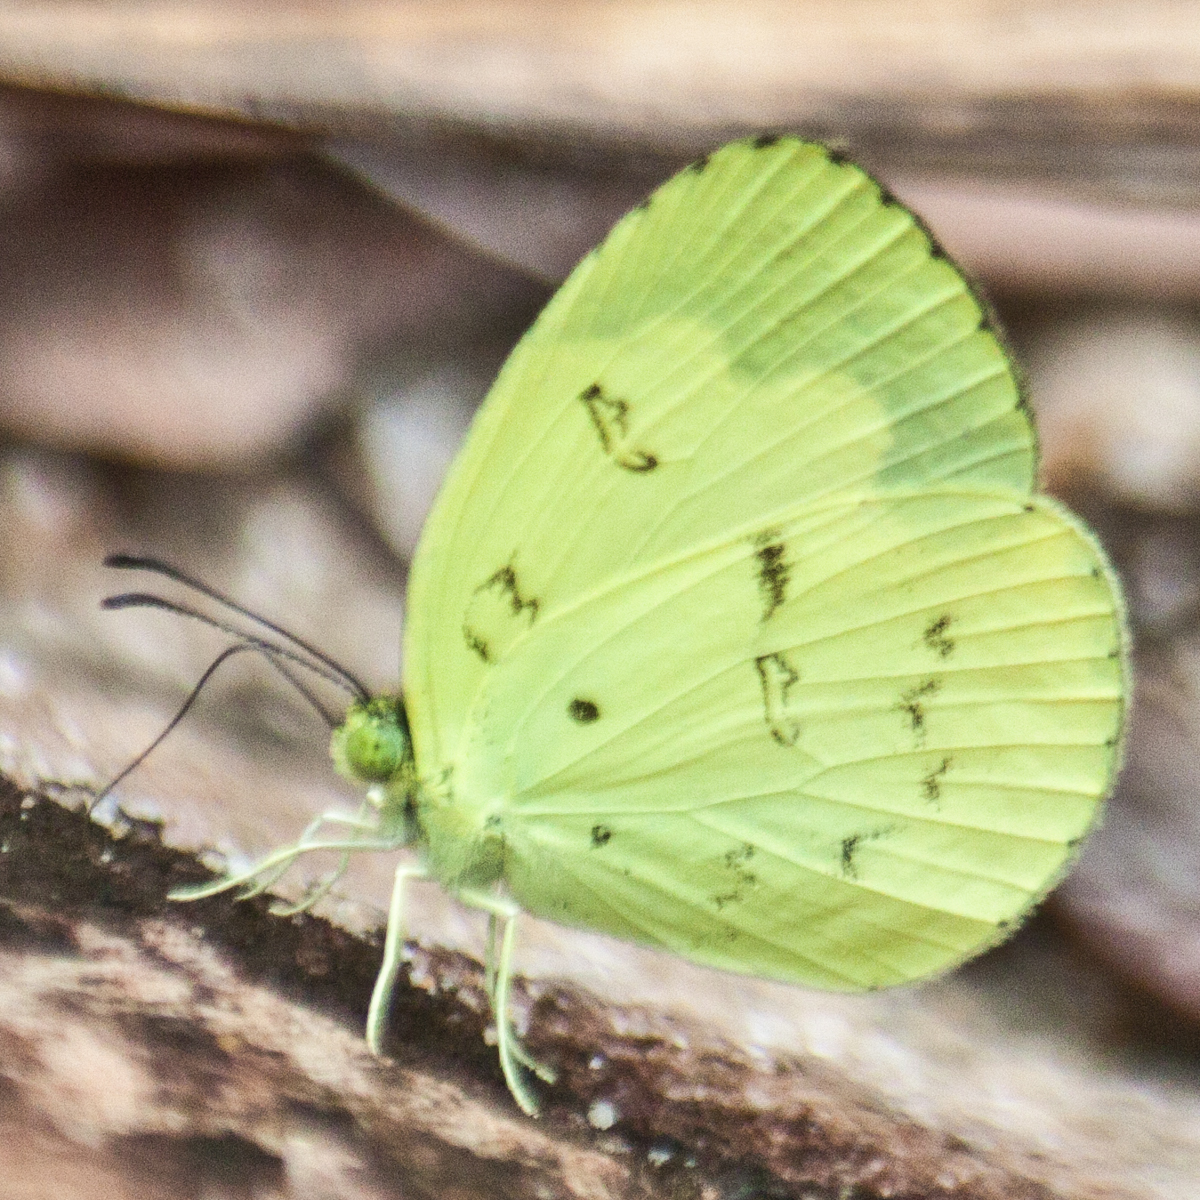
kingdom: Animalia
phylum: Arthropoda
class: Insecta
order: Lepidoptera
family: Pieridae
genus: Eurema
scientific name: Eurema ada
